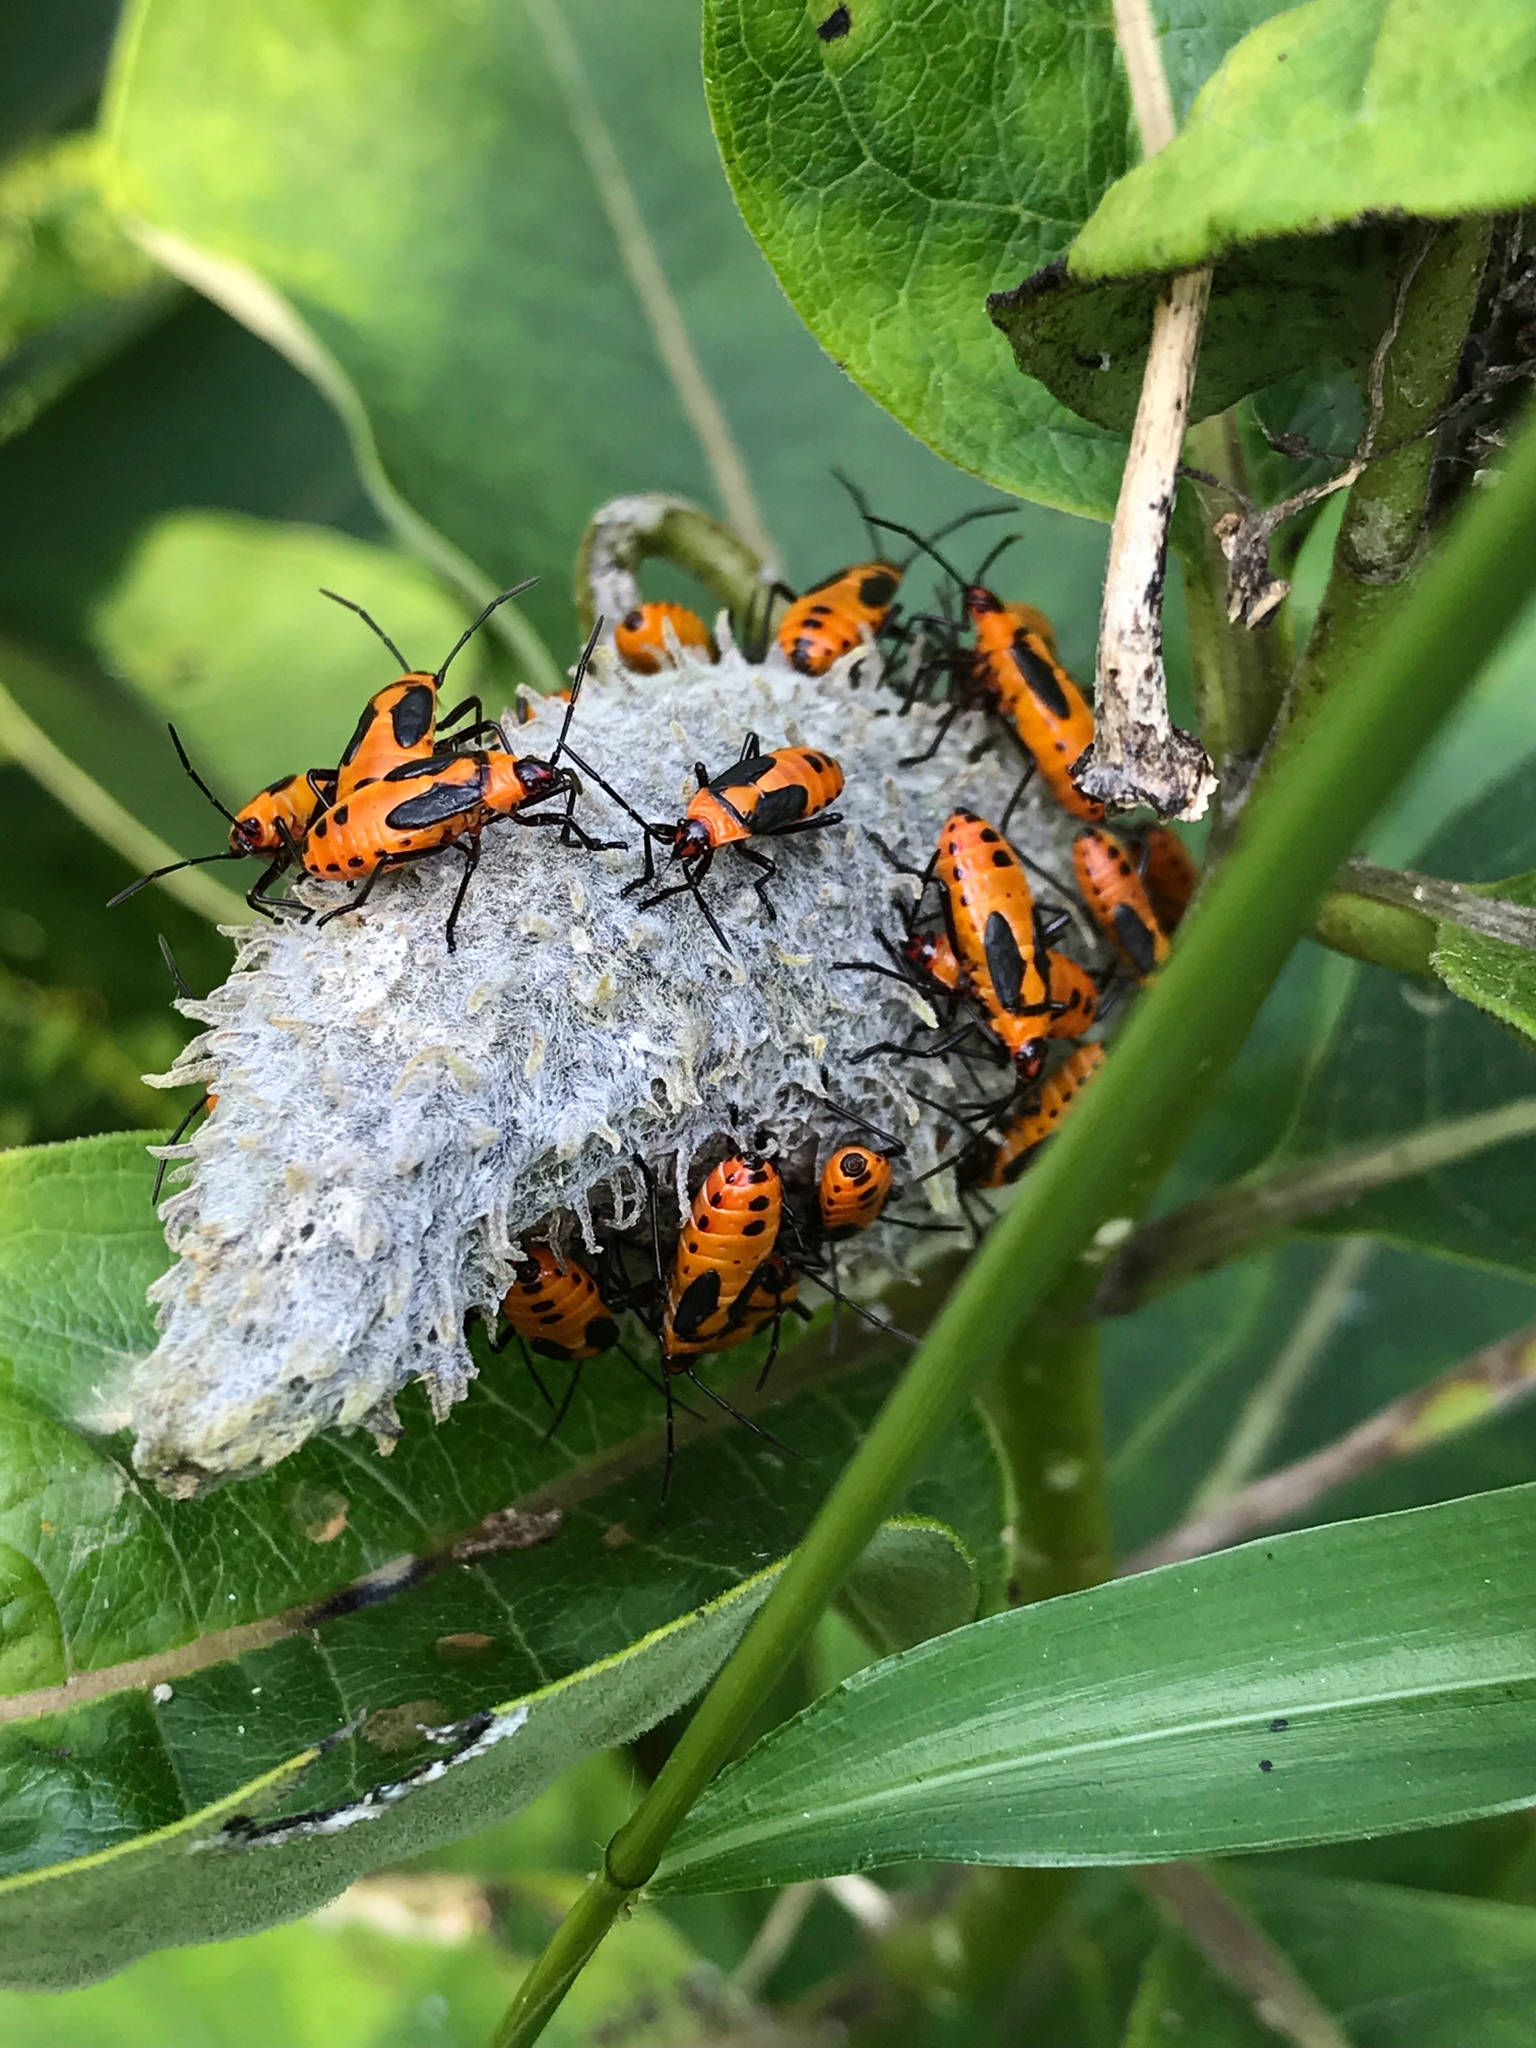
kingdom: Animalia
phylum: Arthropoda
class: Insecta
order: Hemiptera
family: Lygaeidae
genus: Oncopeltus
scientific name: Oncopeltus fasciatus
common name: Large milkweed bug
